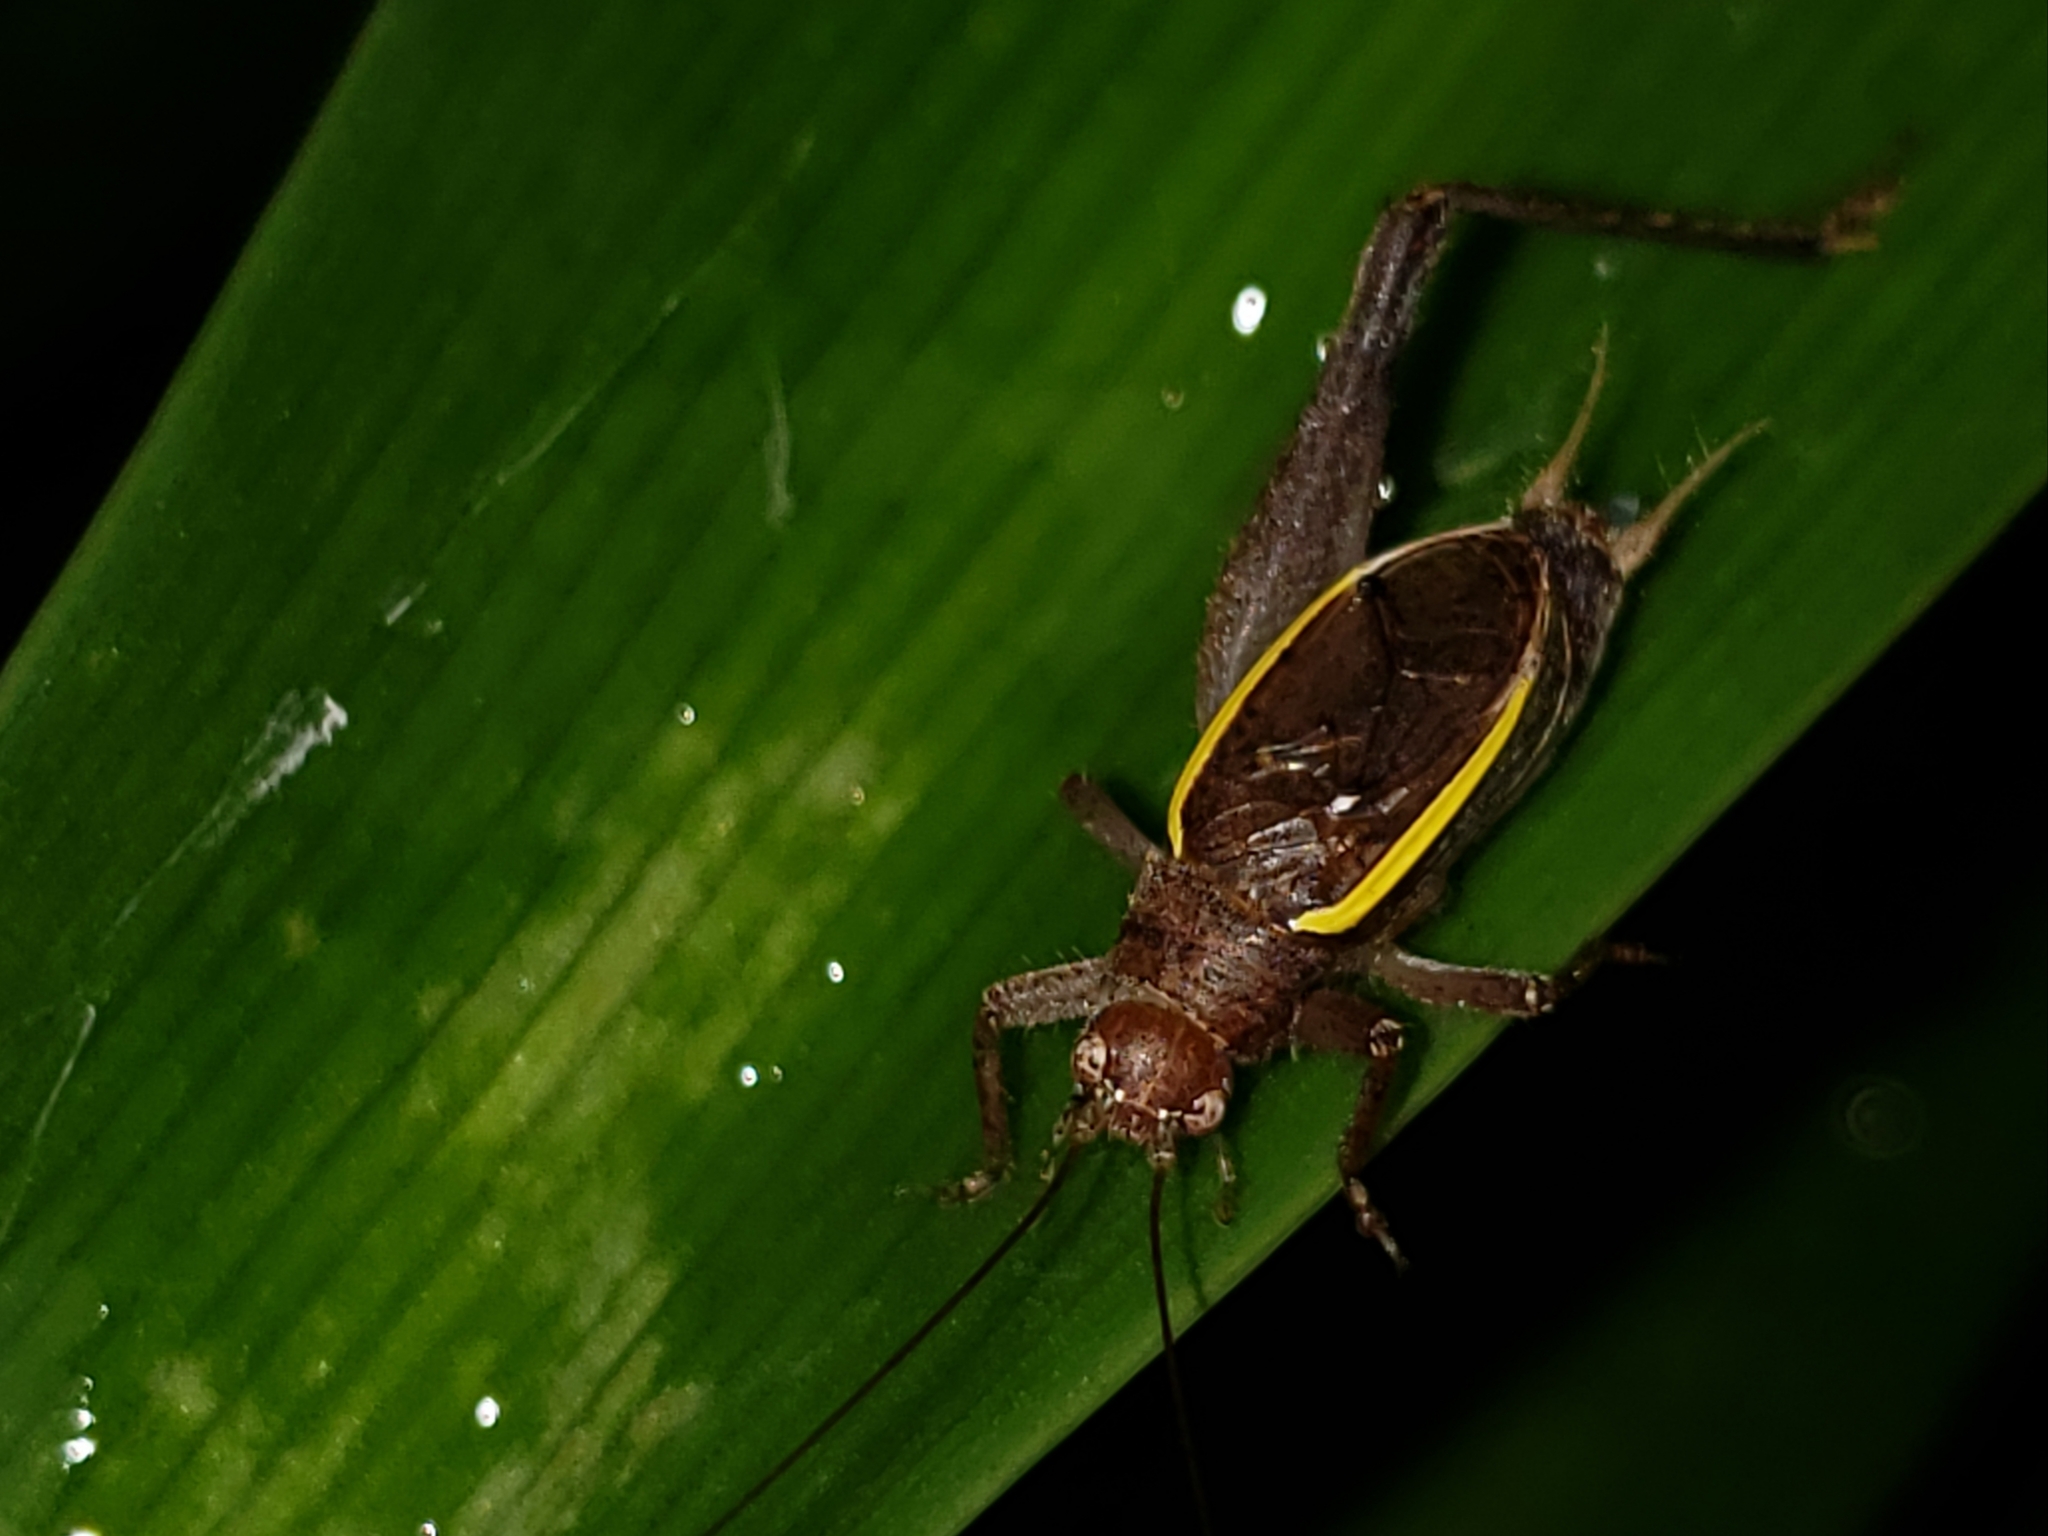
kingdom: Animalia
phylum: Arthropoda
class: Insecta
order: Orthoptera
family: Gryllidae
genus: Hapithus
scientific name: Hapithus agitator
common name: Restless bush cricket
